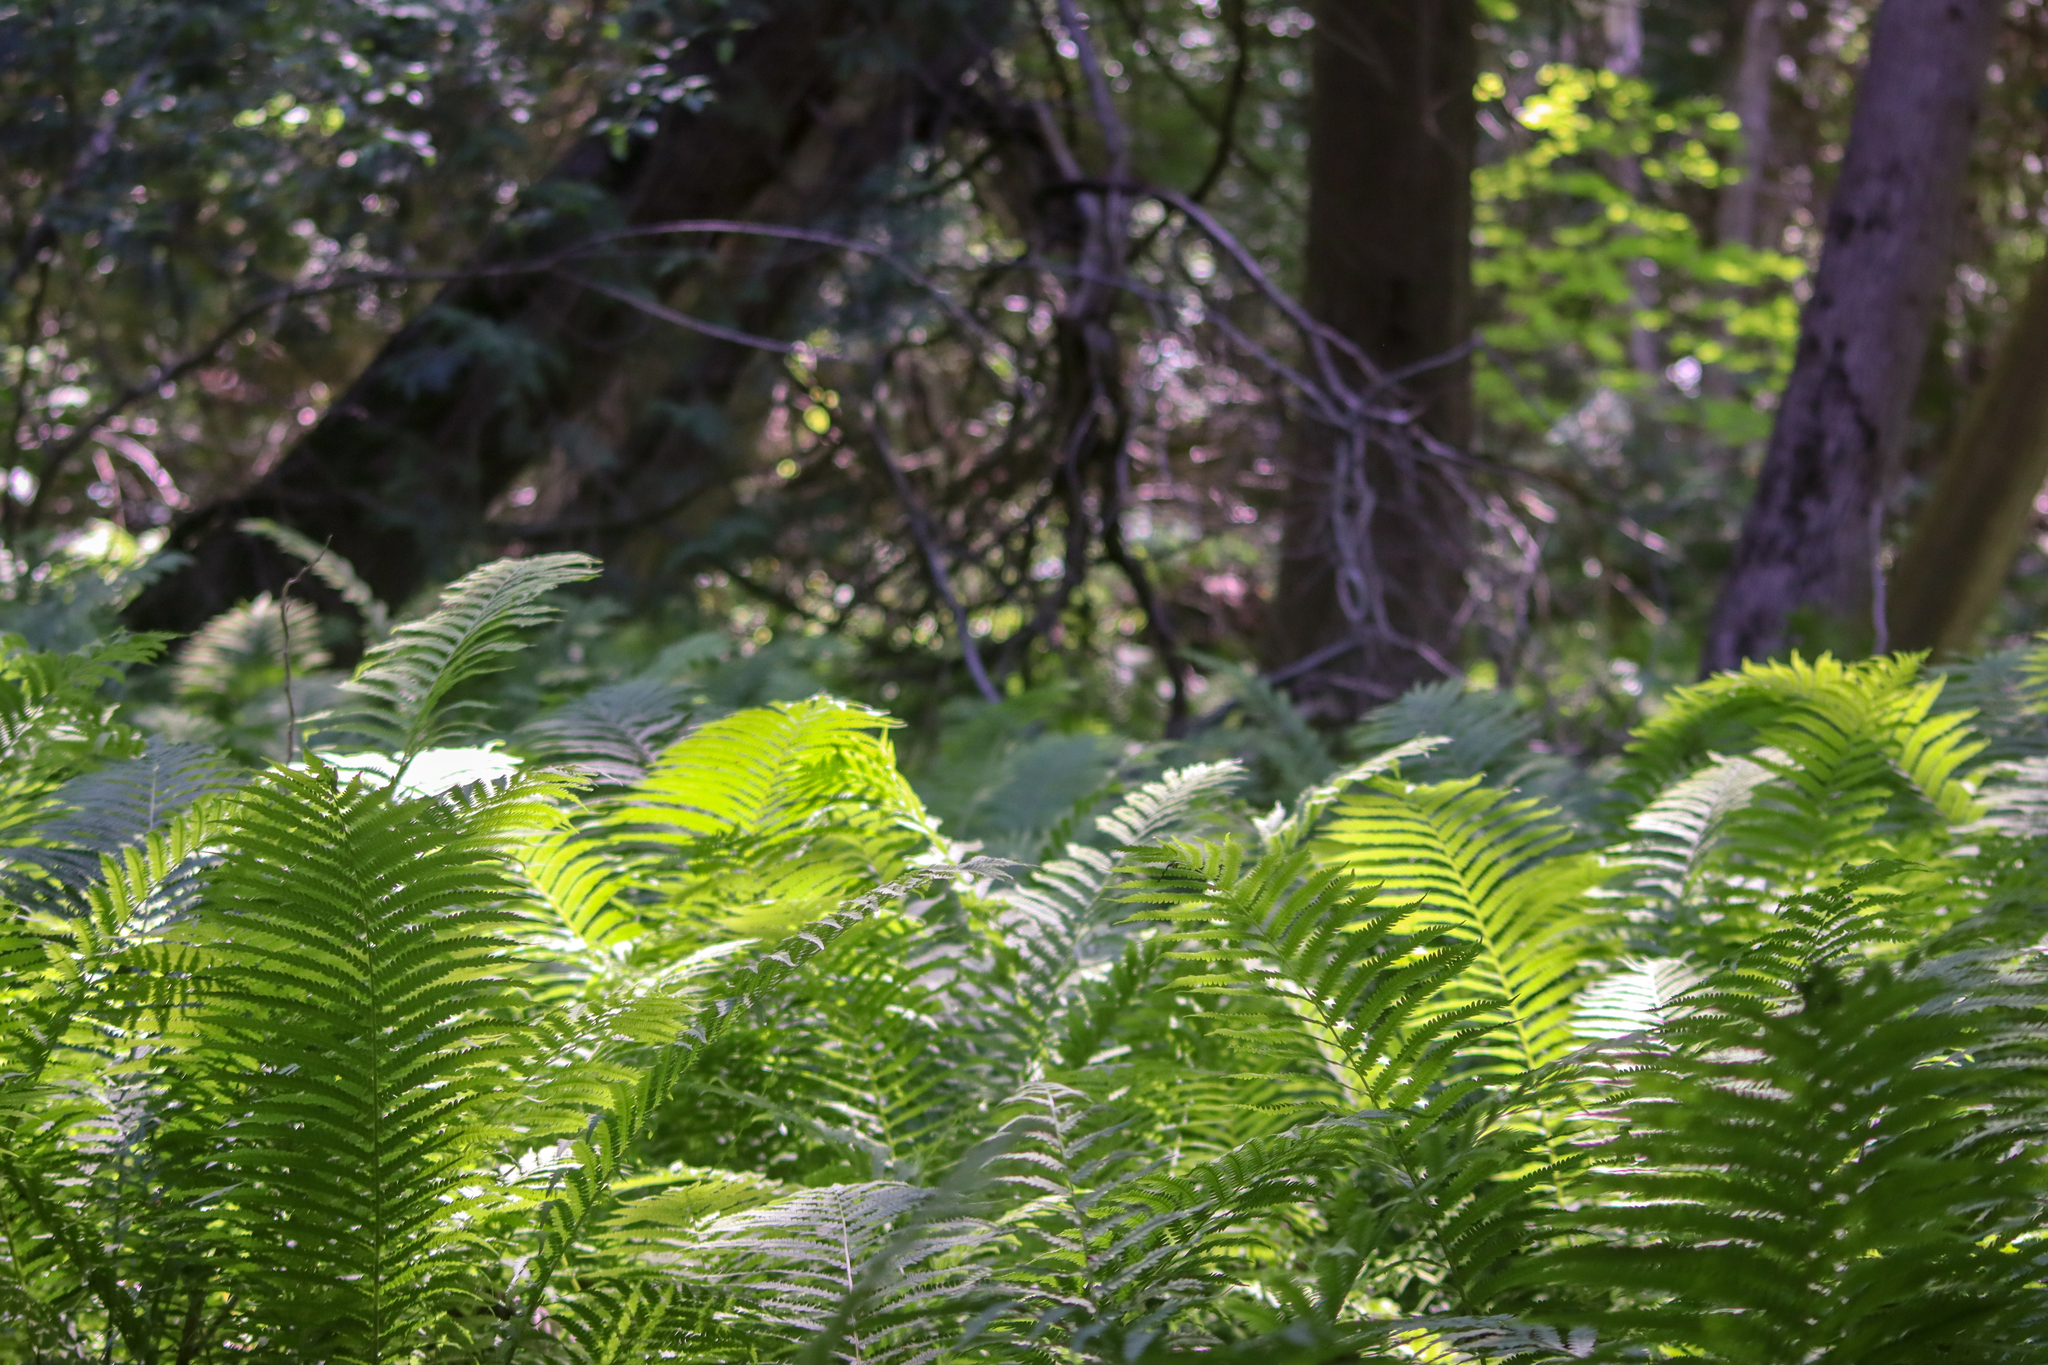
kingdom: Plantae
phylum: Tracheophyta
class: Polypodiopsida
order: Polypodiales
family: Onocleaceae
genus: Matteuccia
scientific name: Matteuccia struthiopteris
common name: Ostrich fern
